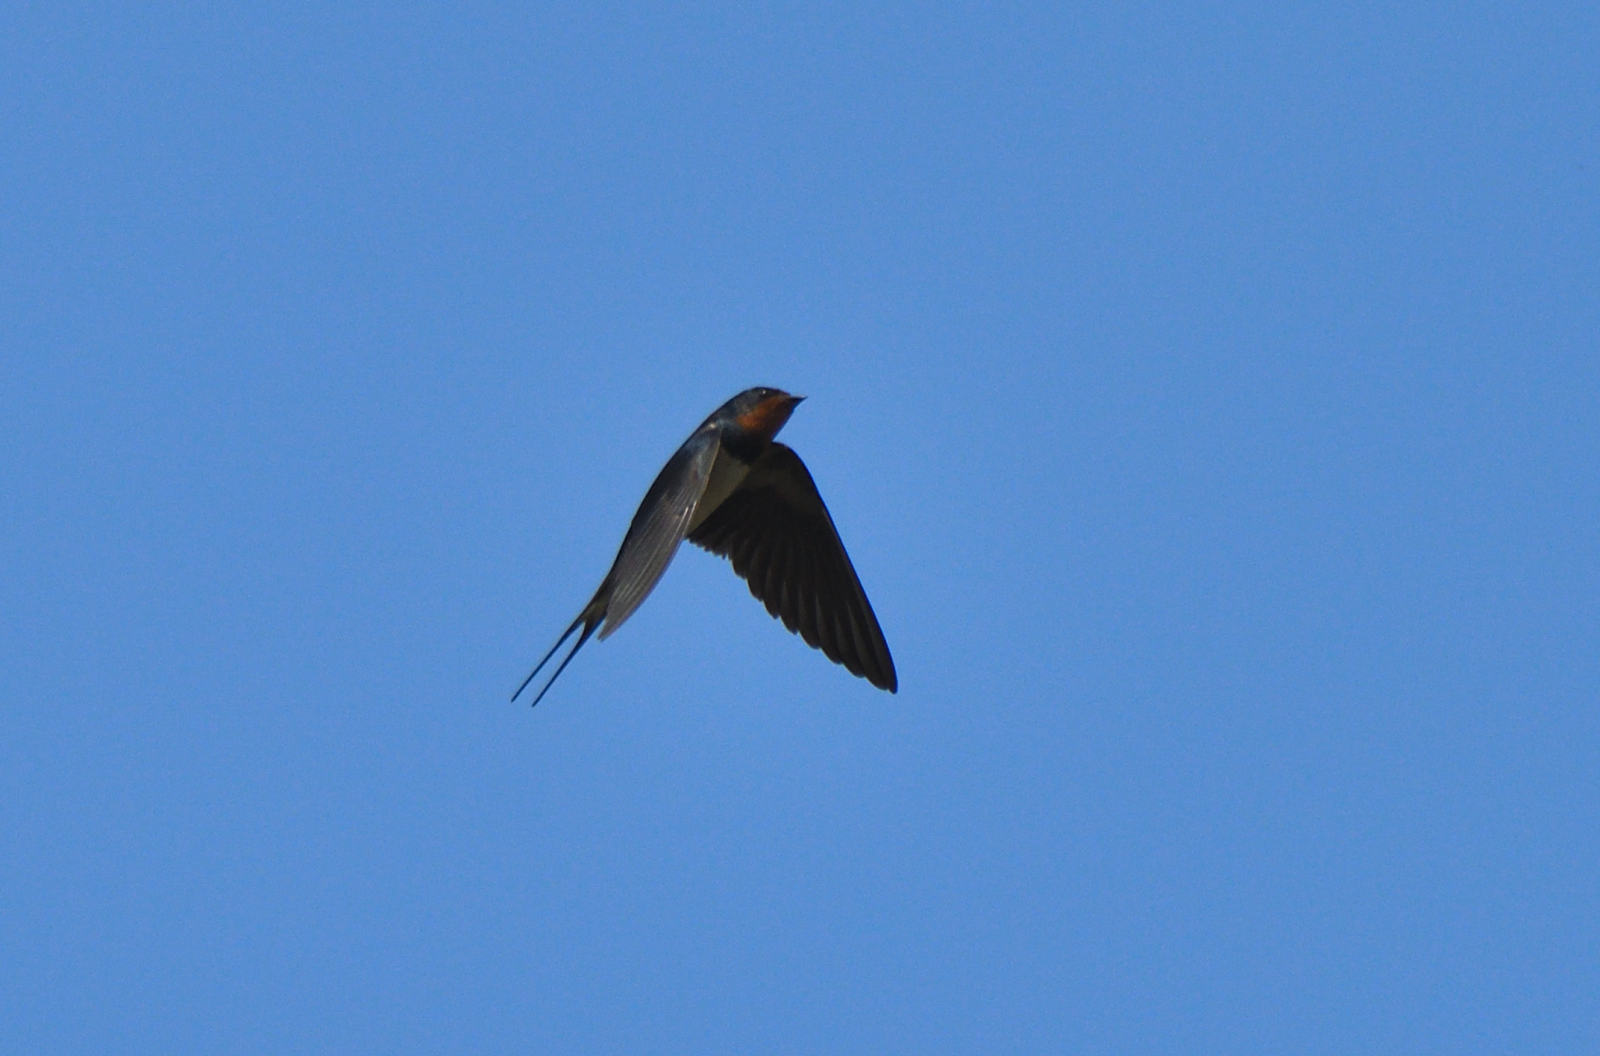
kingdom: Animalia
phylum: Chordata
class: Aves
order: Passeriformes
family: Hirundinidae
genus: Hirundo
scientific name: Hirundo rustica
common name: Barn swallow
